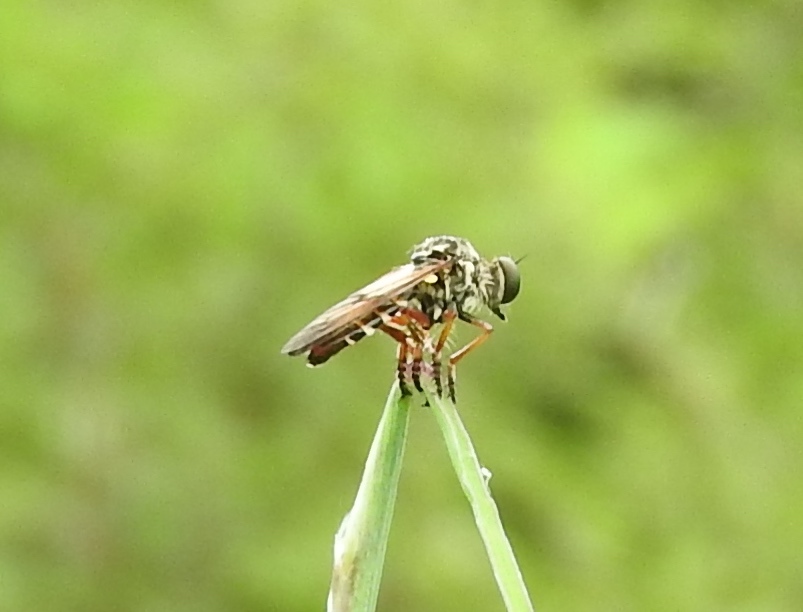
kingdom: Animalia
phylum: Arthropoda
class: Insecta
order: Diptera
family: Asilidae
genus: Heteropogon
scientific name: Heteropogon
